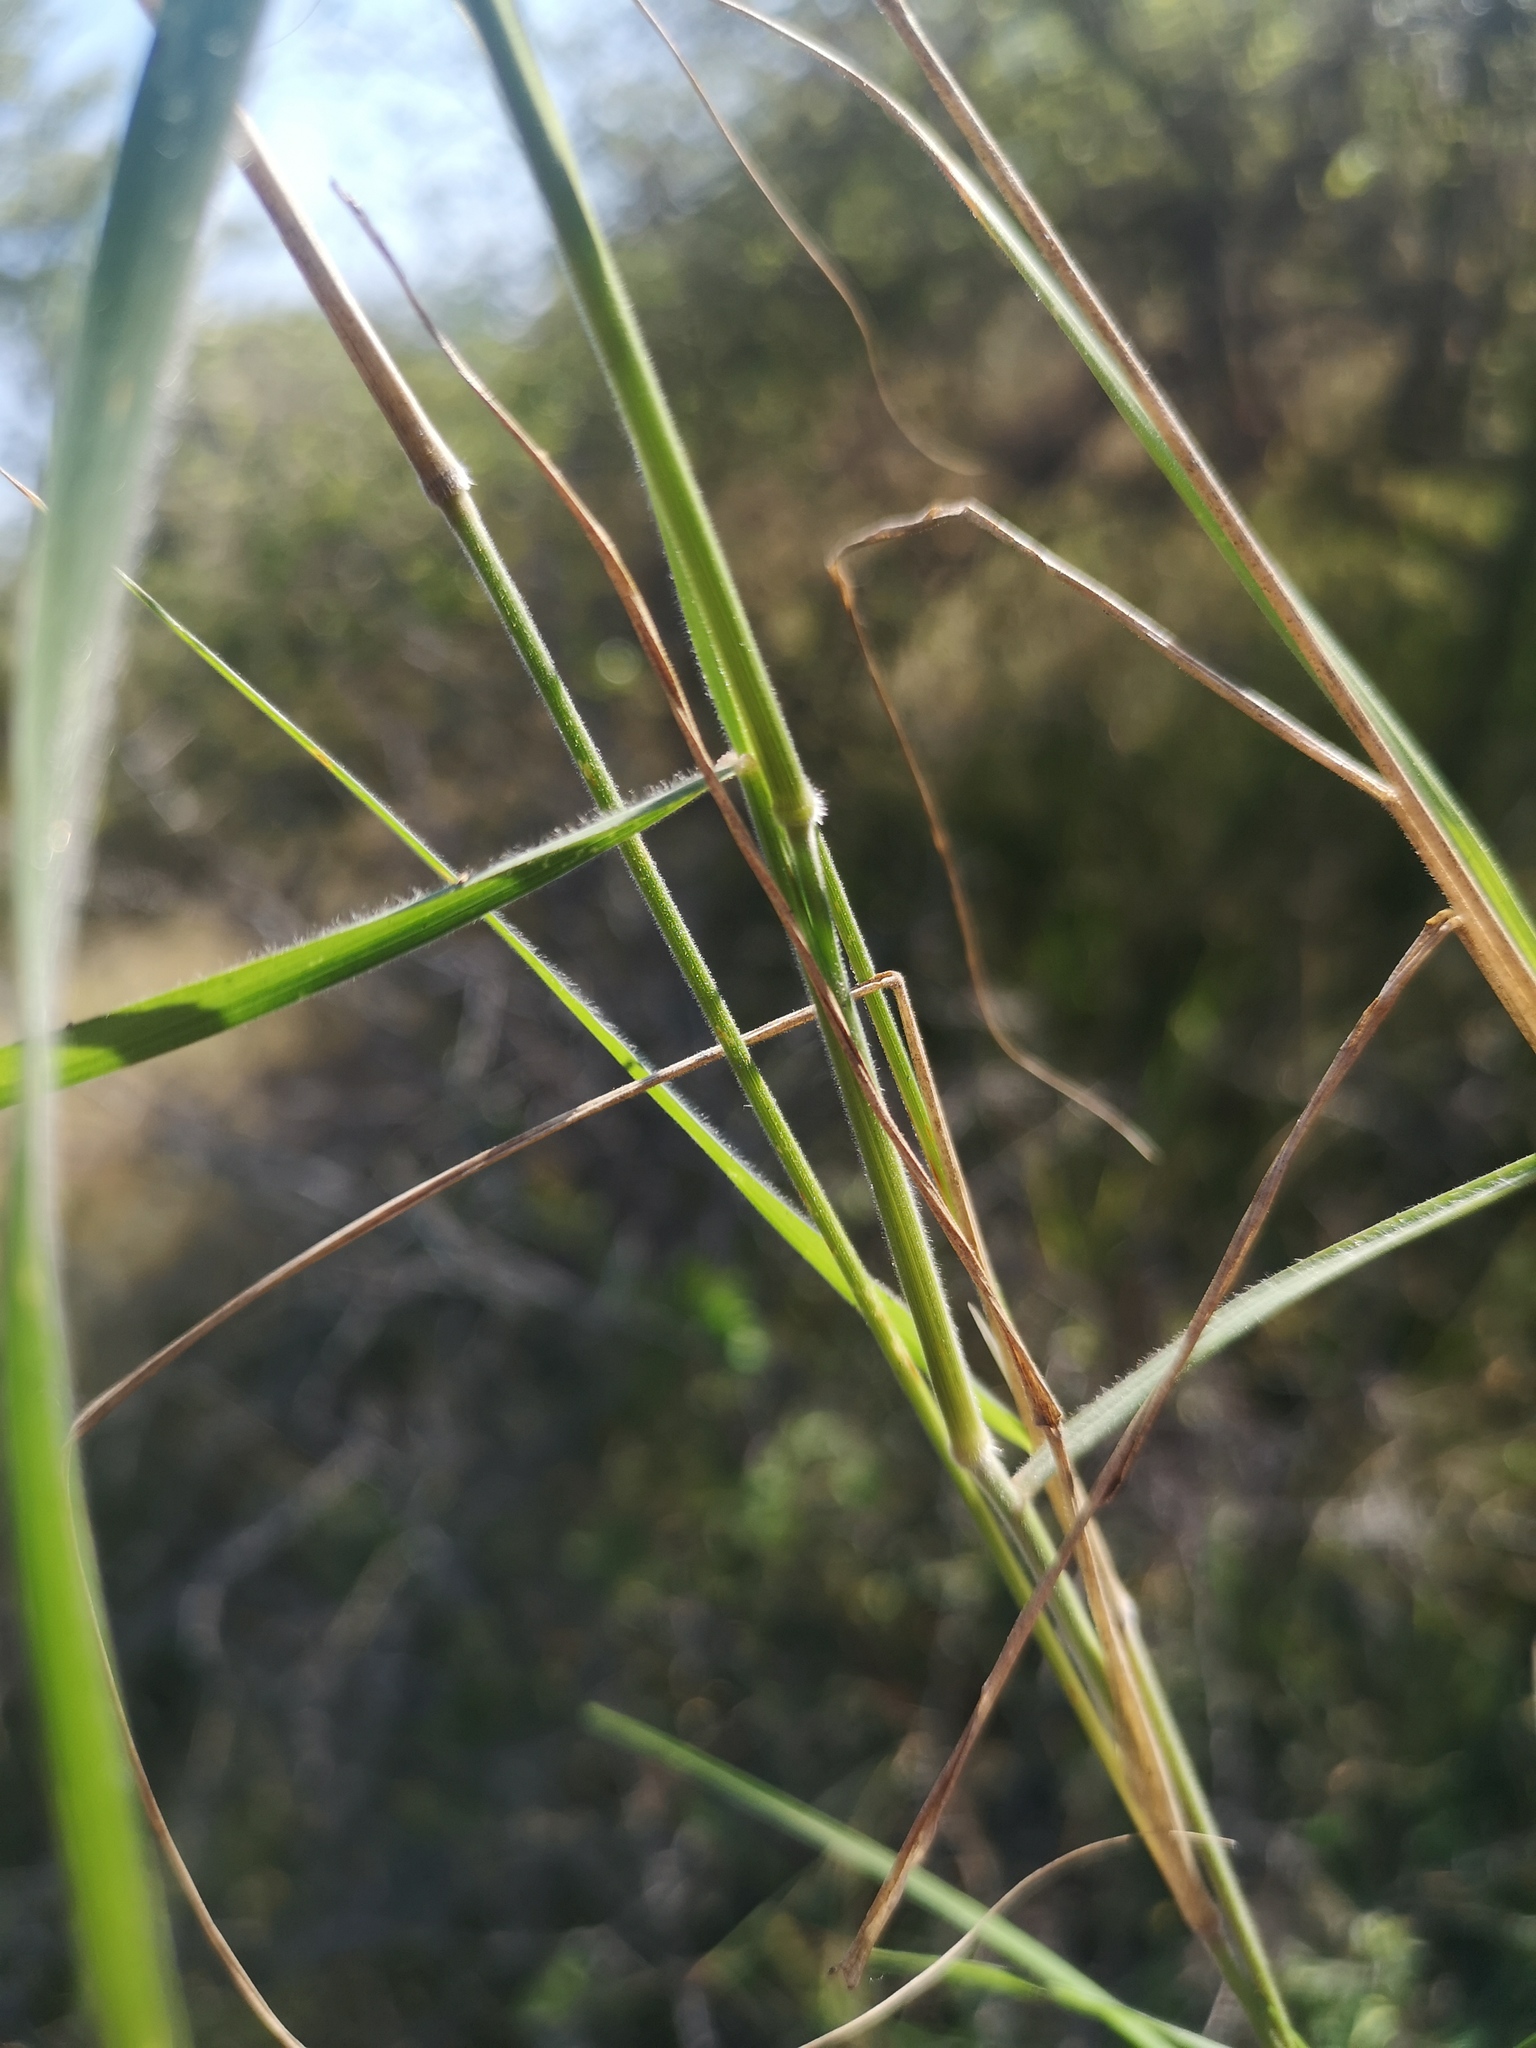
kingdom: Plantae
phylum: Tracheophyta
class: Liliopsida
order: Poales
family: Poaceae
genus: Enneapogon
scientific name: Enneapogon cenchroides
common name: Soft feather pappusgrass
